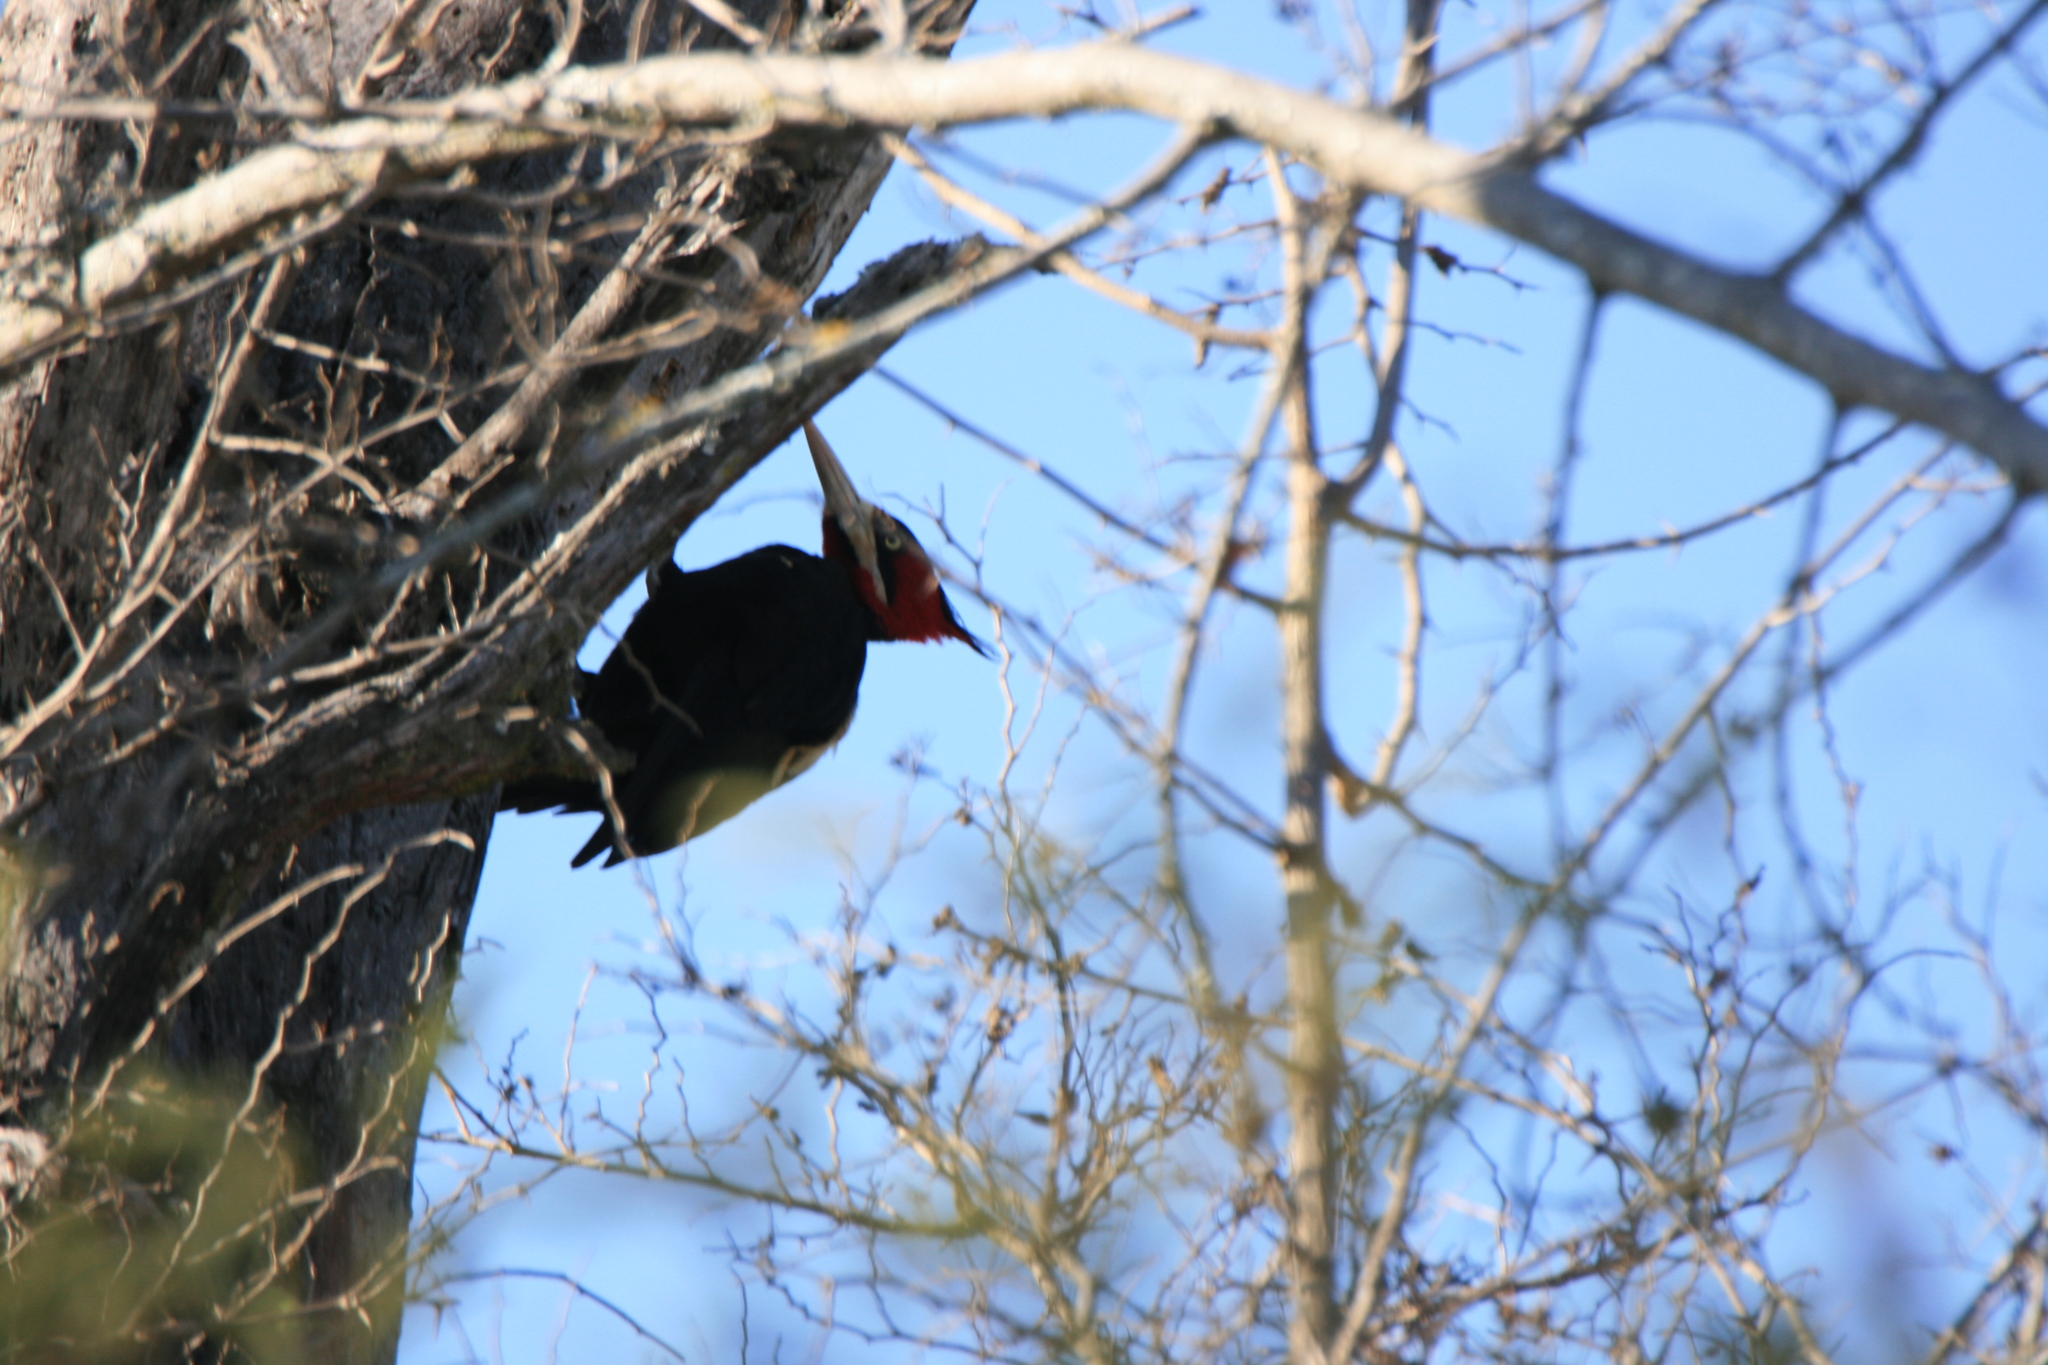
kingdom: Animalia
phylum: Chordata
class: Aves
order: Piciformes
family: Picidae
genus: Campephilus
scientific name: Campephilus leucopogon
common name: Cream-backed woodpecker
